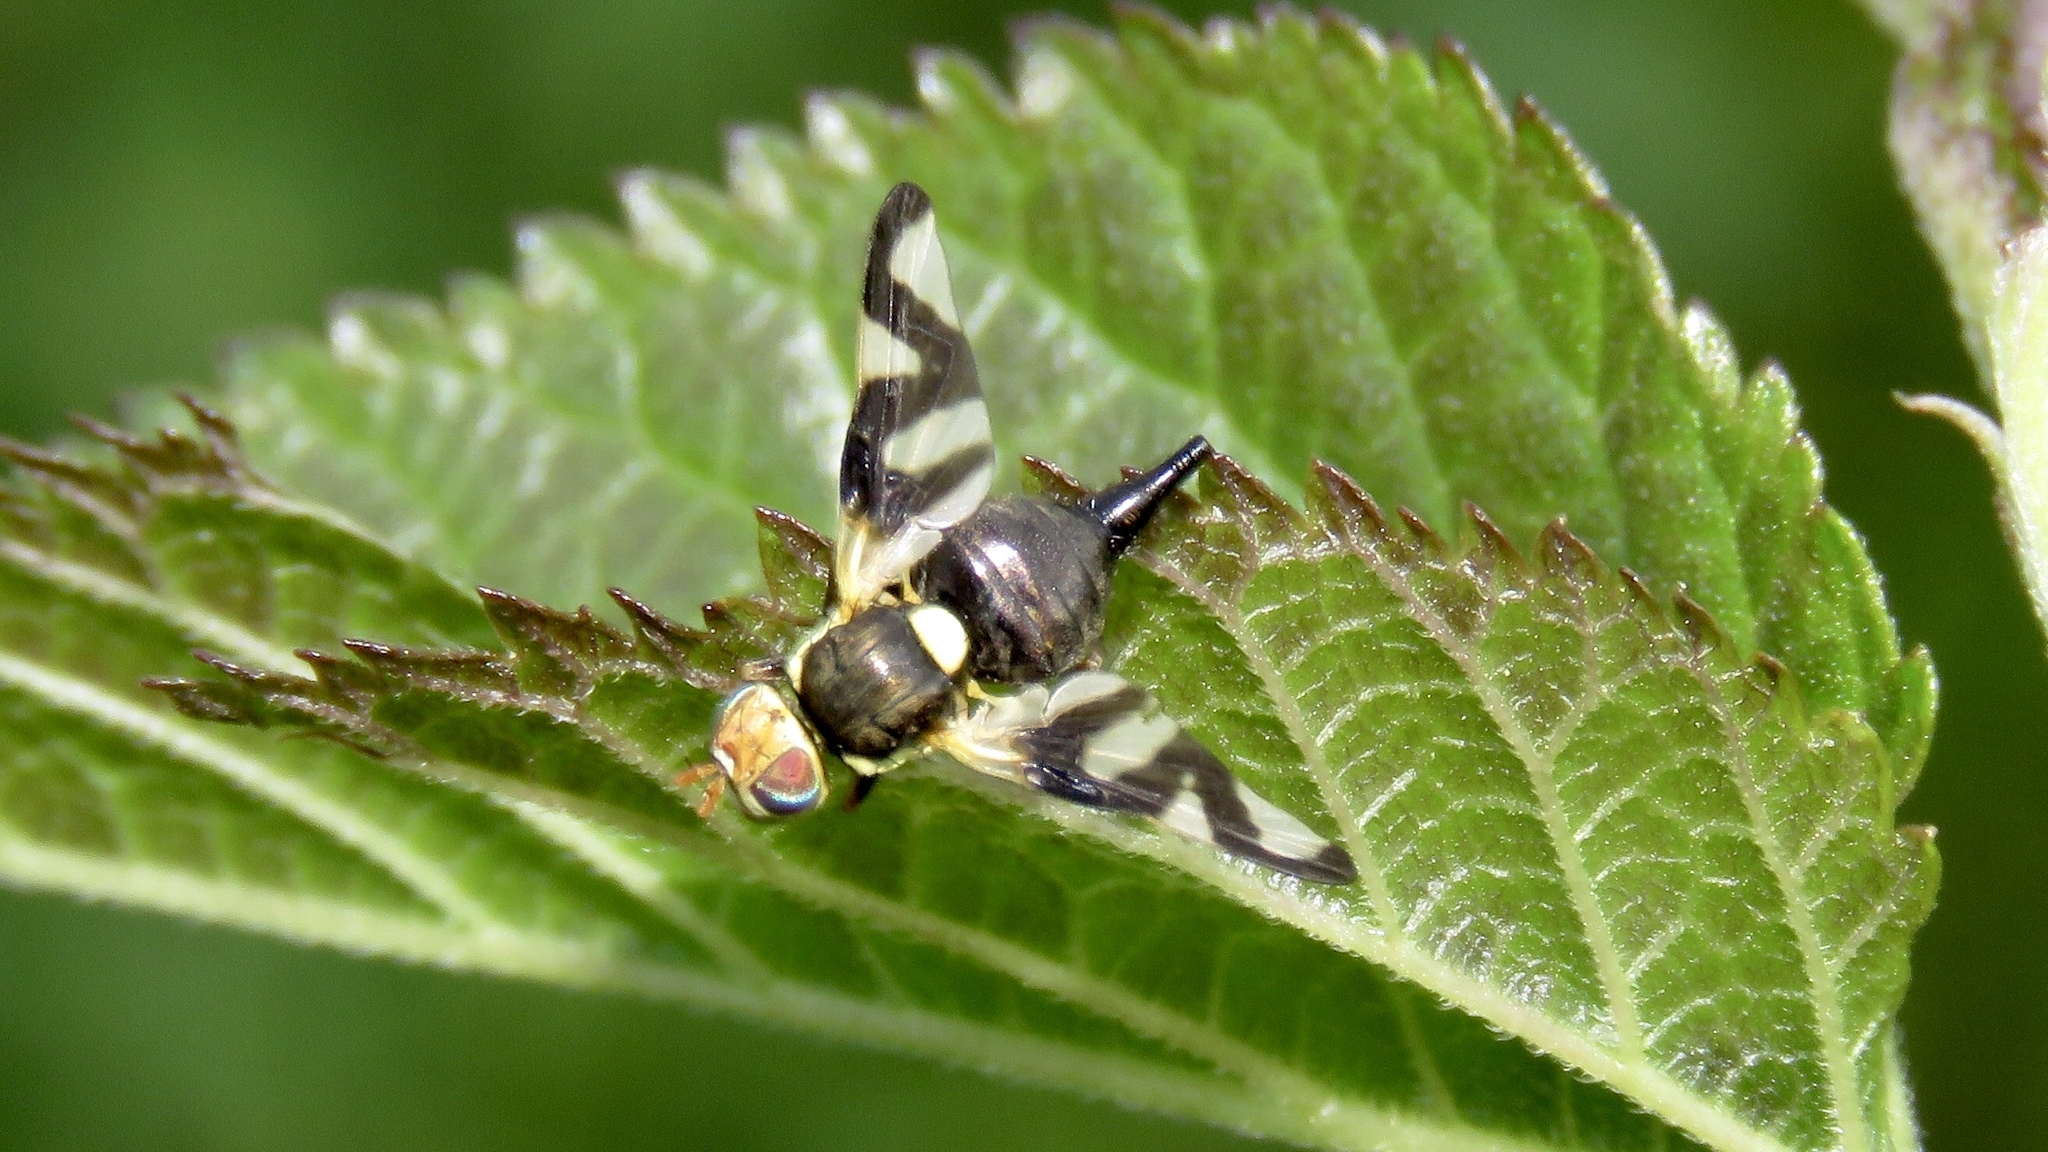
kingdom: Animalia
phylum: Arthropoda
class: Insecta
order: Diptera
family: Tephritidae
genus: Urophora
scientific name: Urophora cardui
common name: Fruit fly
